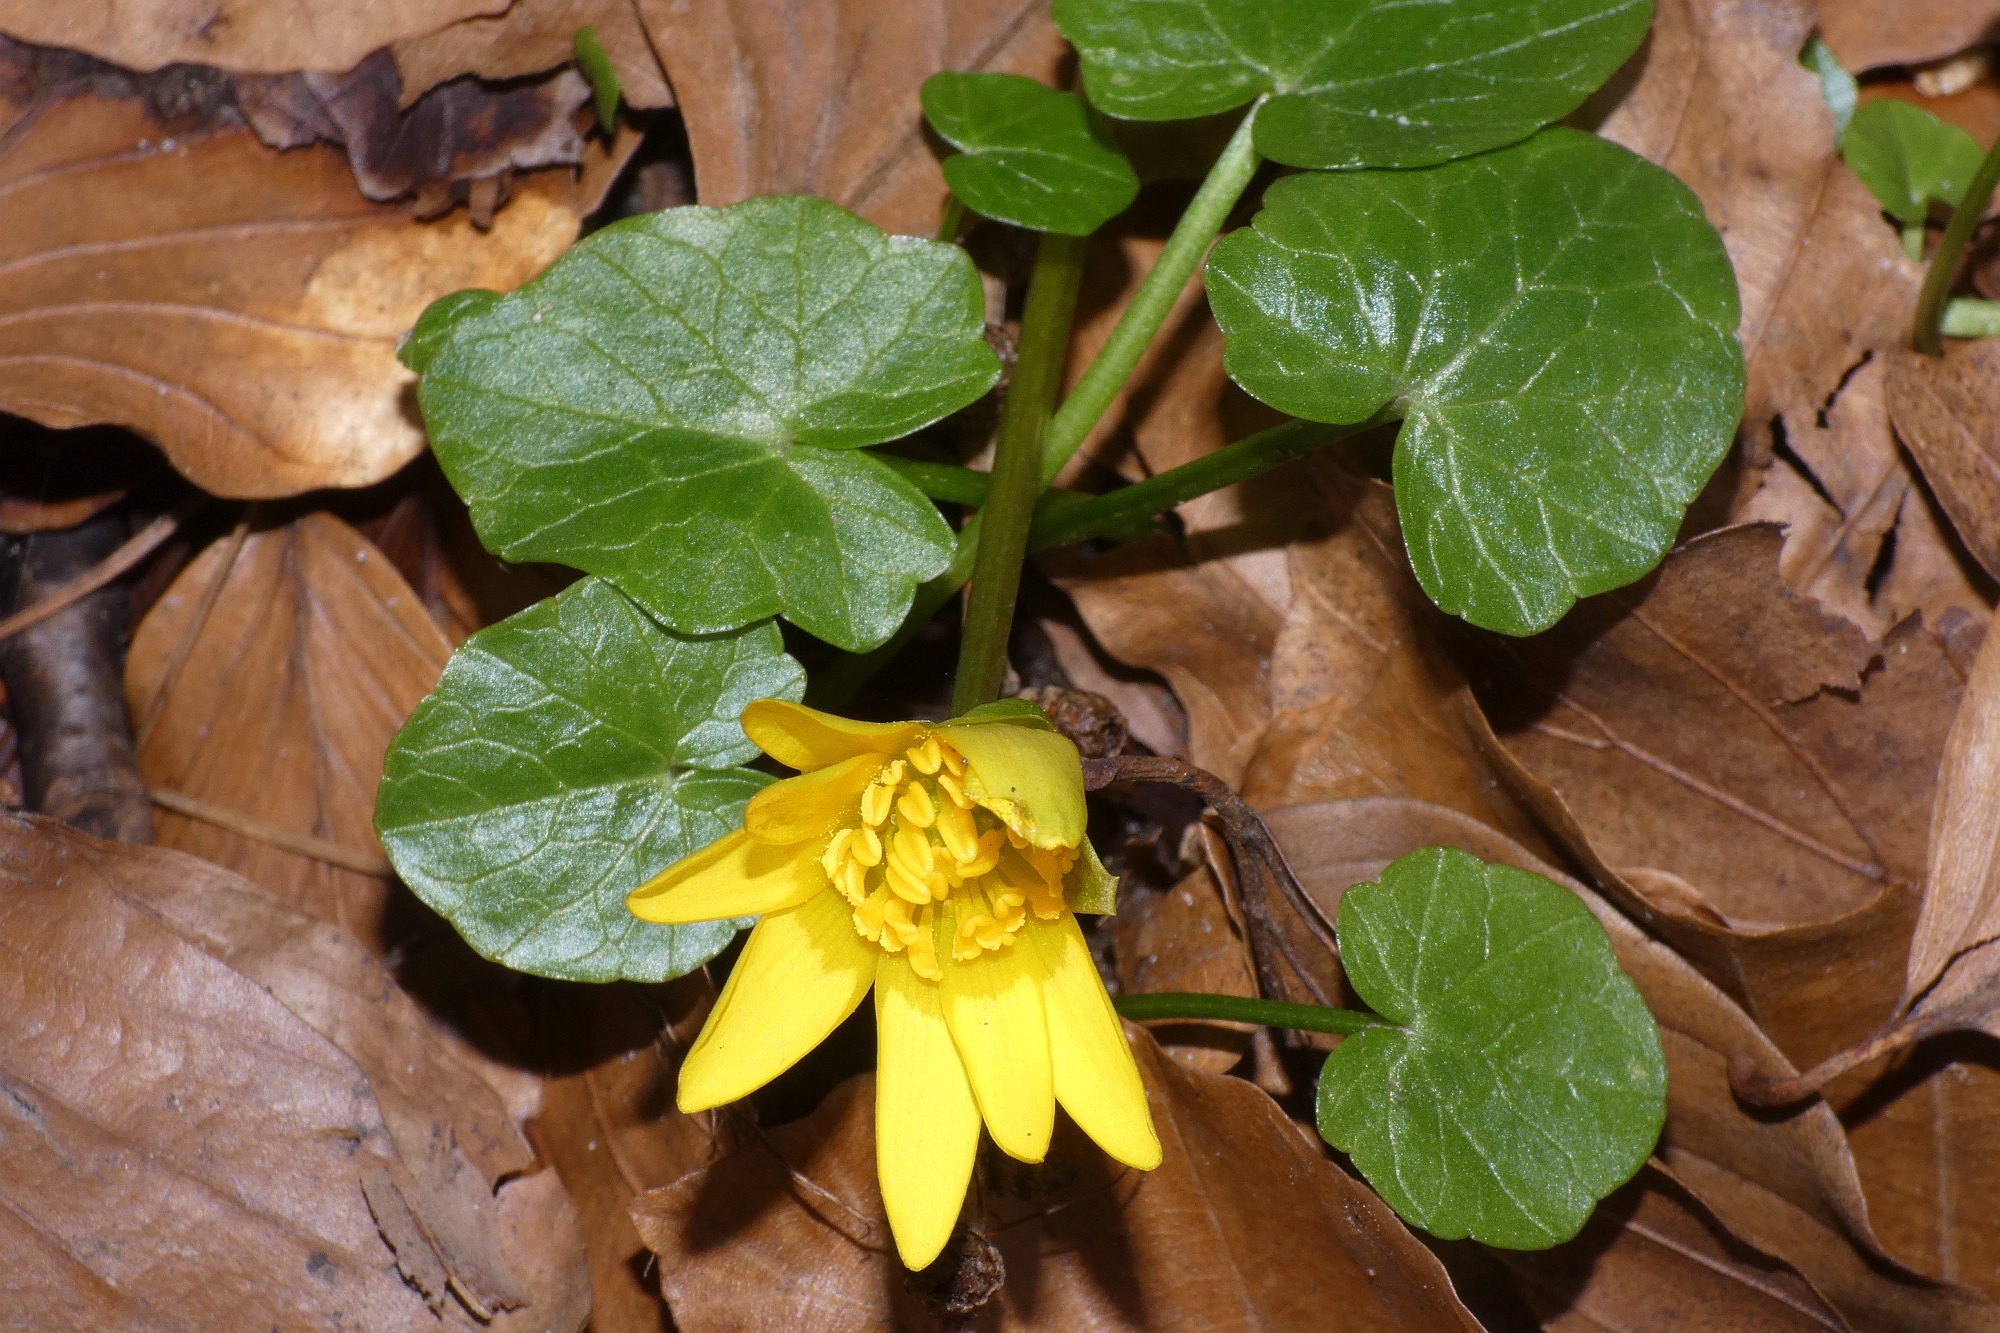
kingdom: Plantae
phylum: Tracheophyta
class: Magnoliopsida
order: Ranunculales
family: Ranunculaceae
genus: Ficaria
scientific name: Ficaria verna
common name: Lesser celandine
